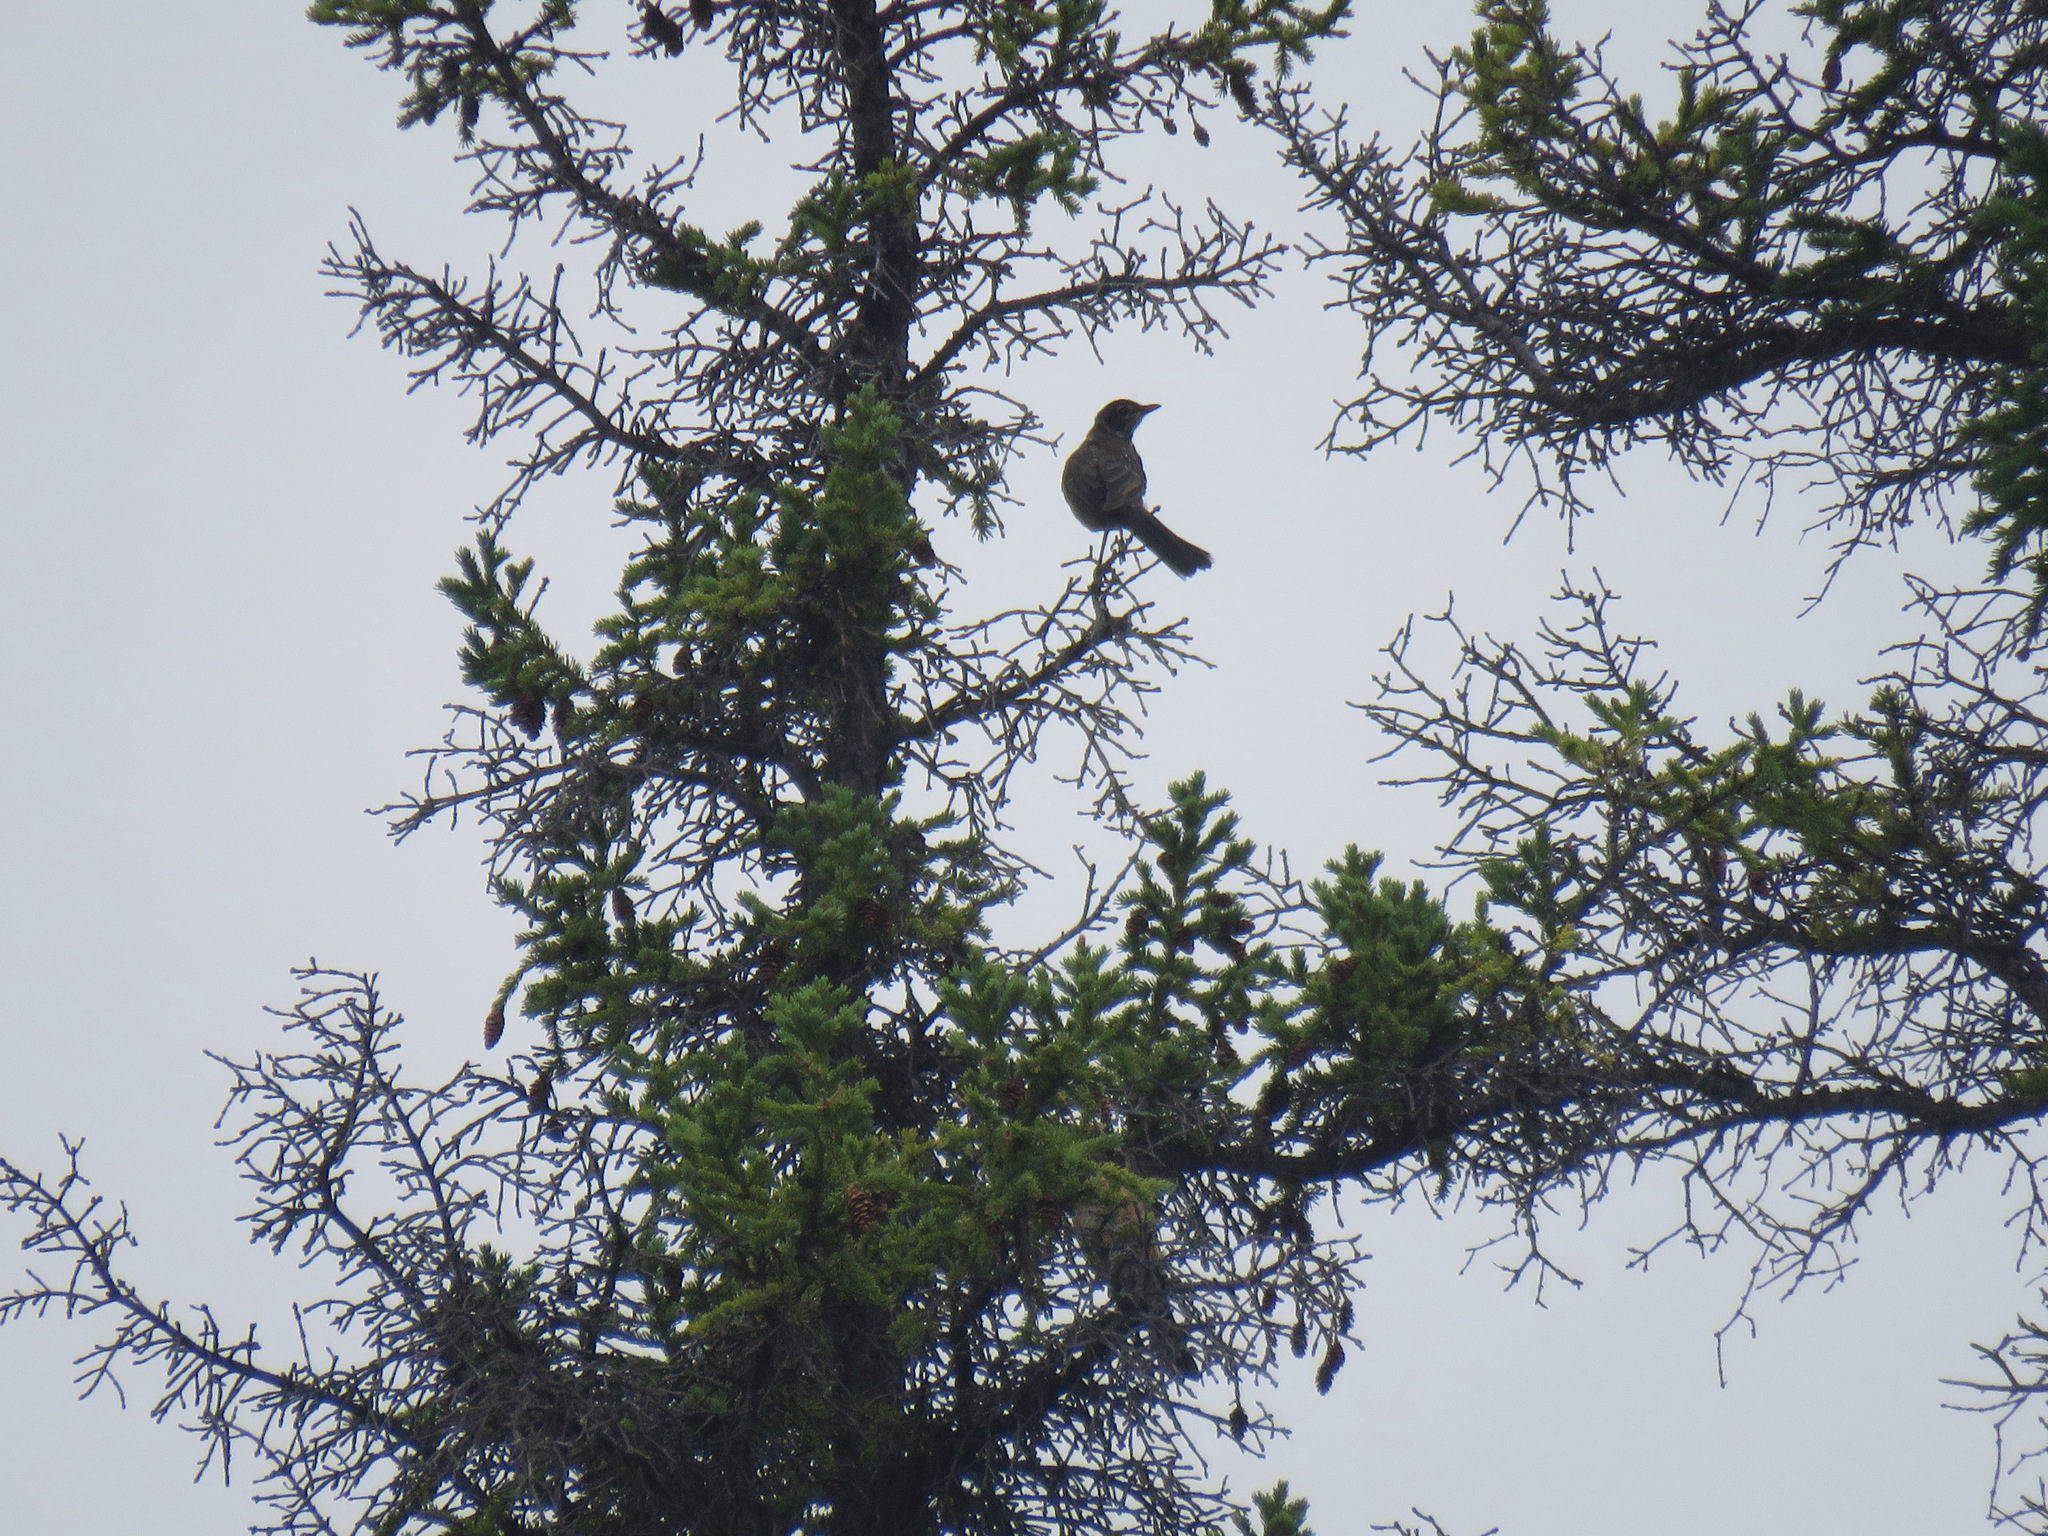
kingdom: Animalia
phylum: Chordata
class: Aves
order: Passeriformes
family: Turdidae
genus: Turdus
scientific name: Turdus migratorius
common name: American robin
